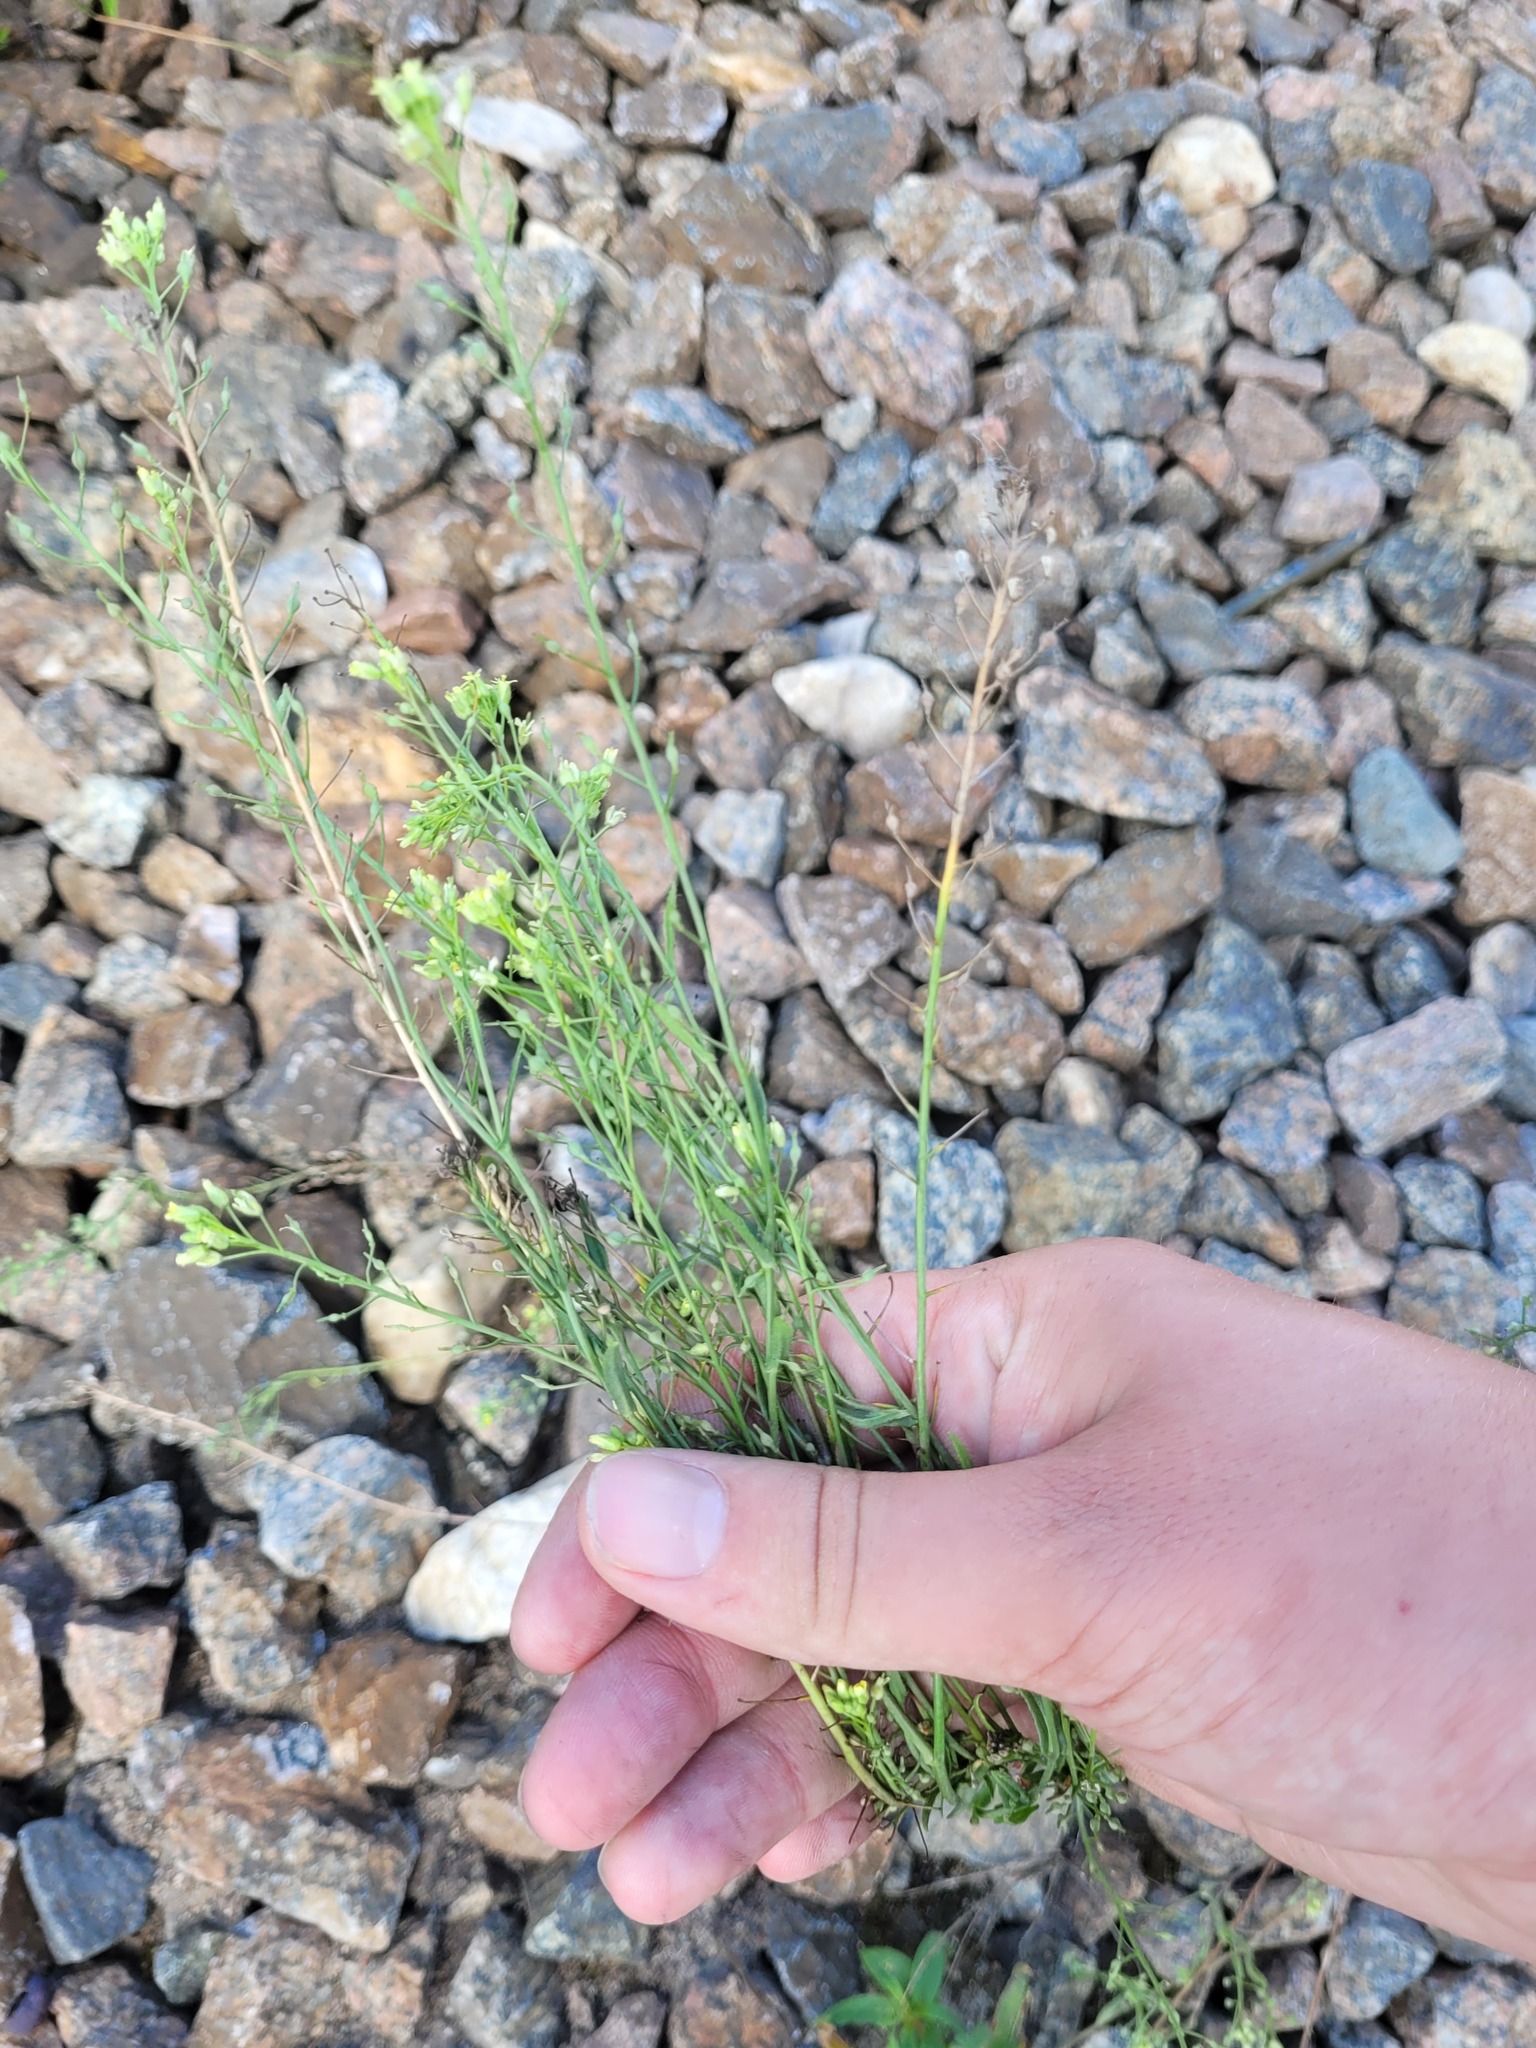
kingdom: Plantae
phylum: Tracheophyta
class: Magnoliopsida
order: Brassicales
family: Brassicaceae
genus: Camelina
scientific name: Camelina microcarpa
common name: Lesser gold-of-pleasure
